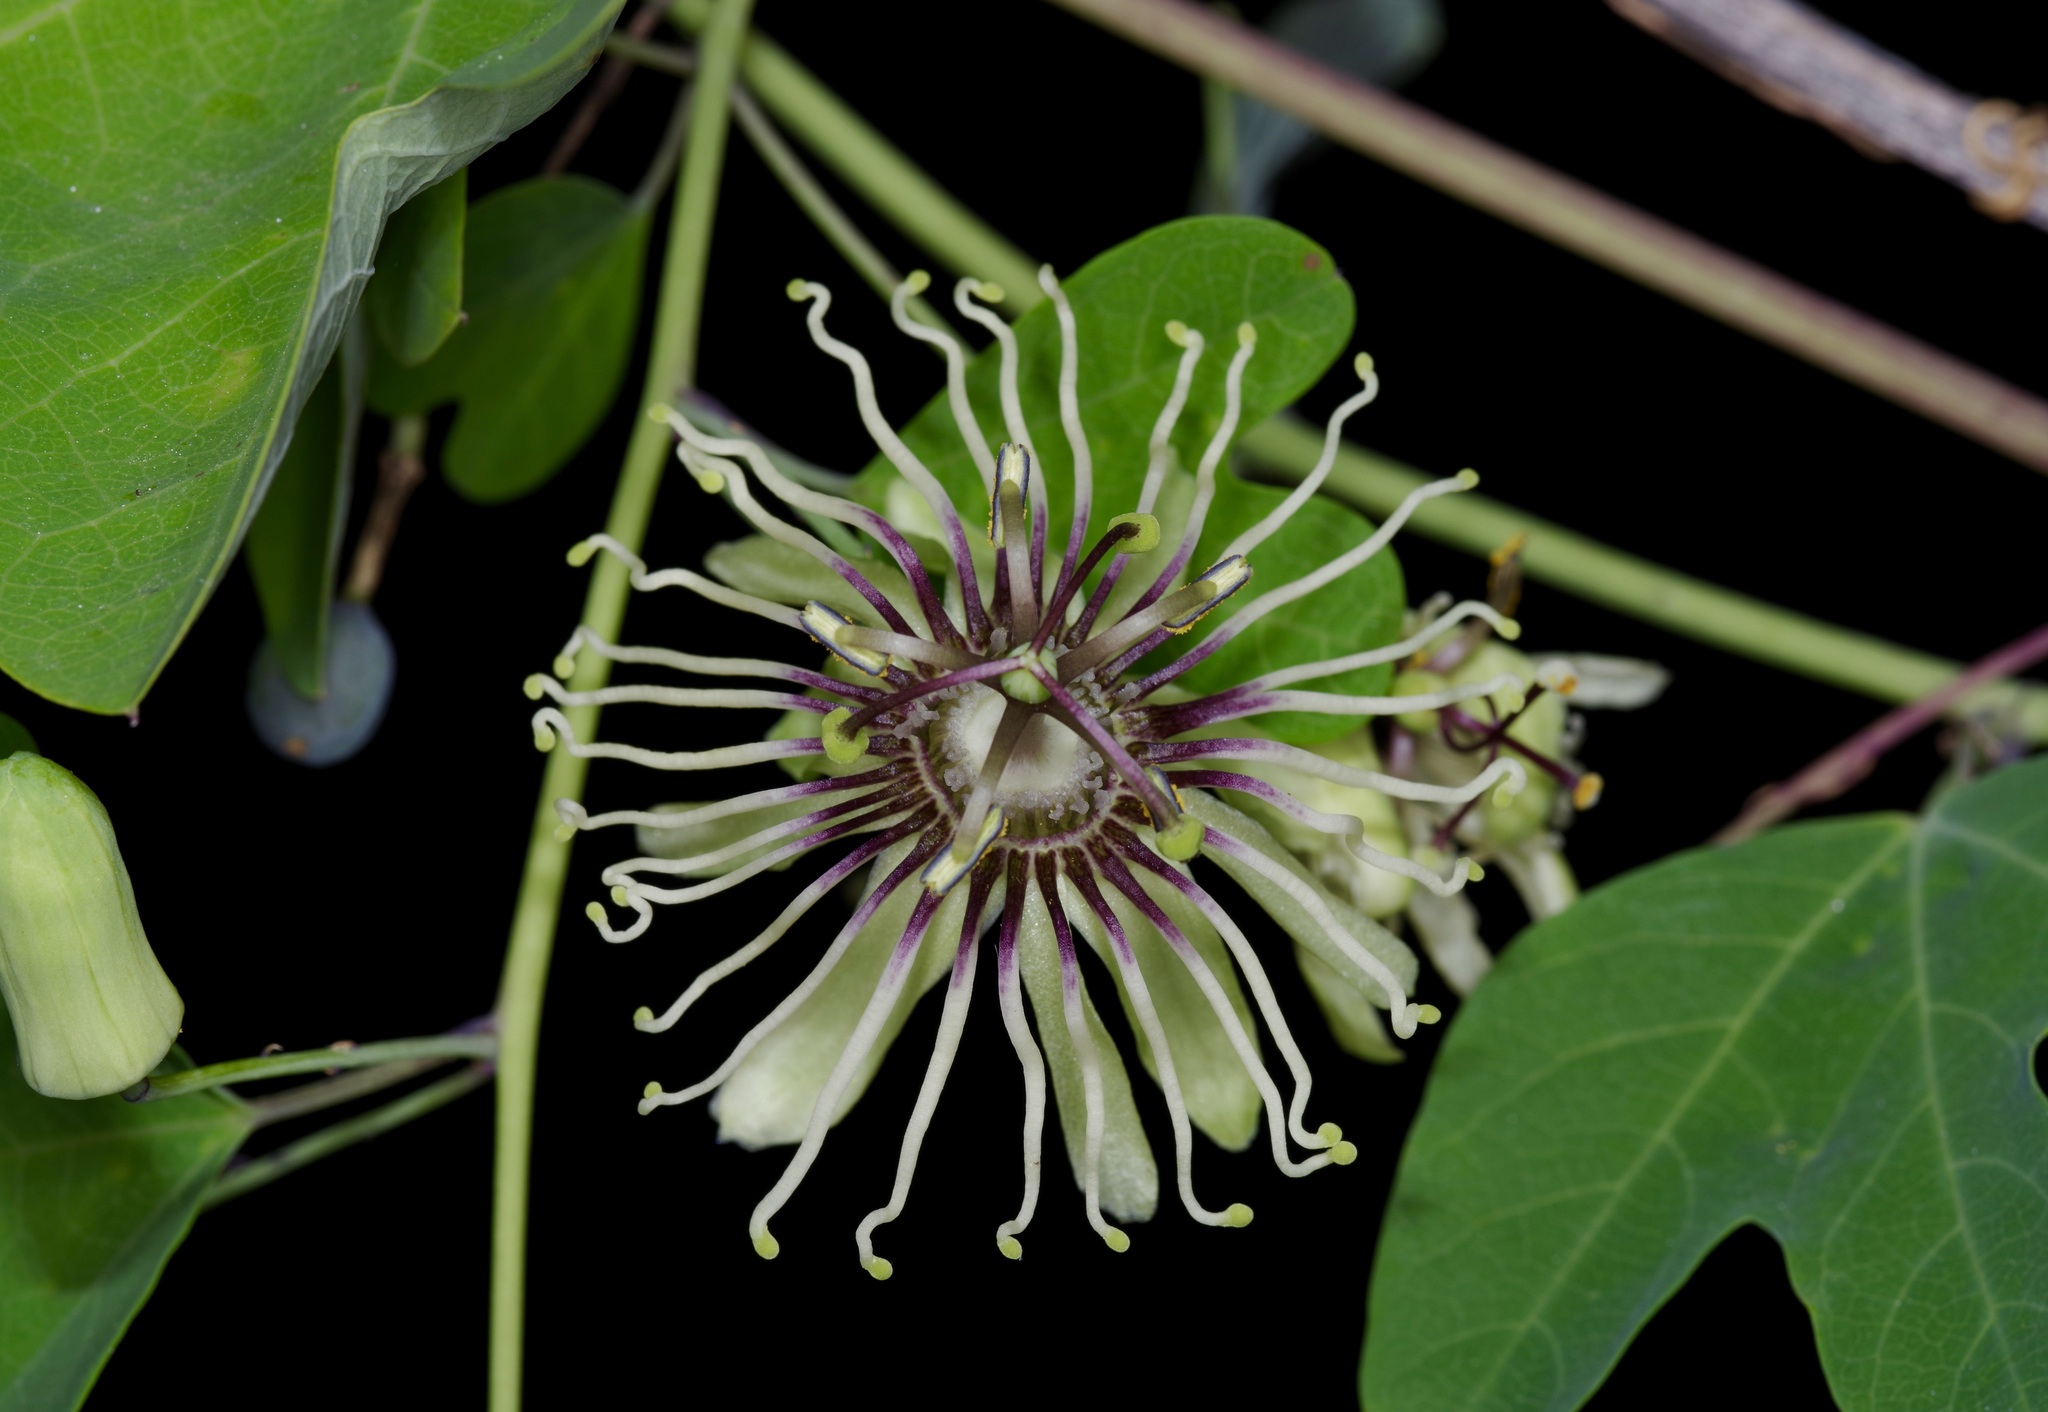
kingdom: Plantae
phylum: Tracheophyta
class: Magnoliopsida
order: Malpighiales
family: Passifloraceae
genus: Passiflora
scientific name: Passiflora affinis
